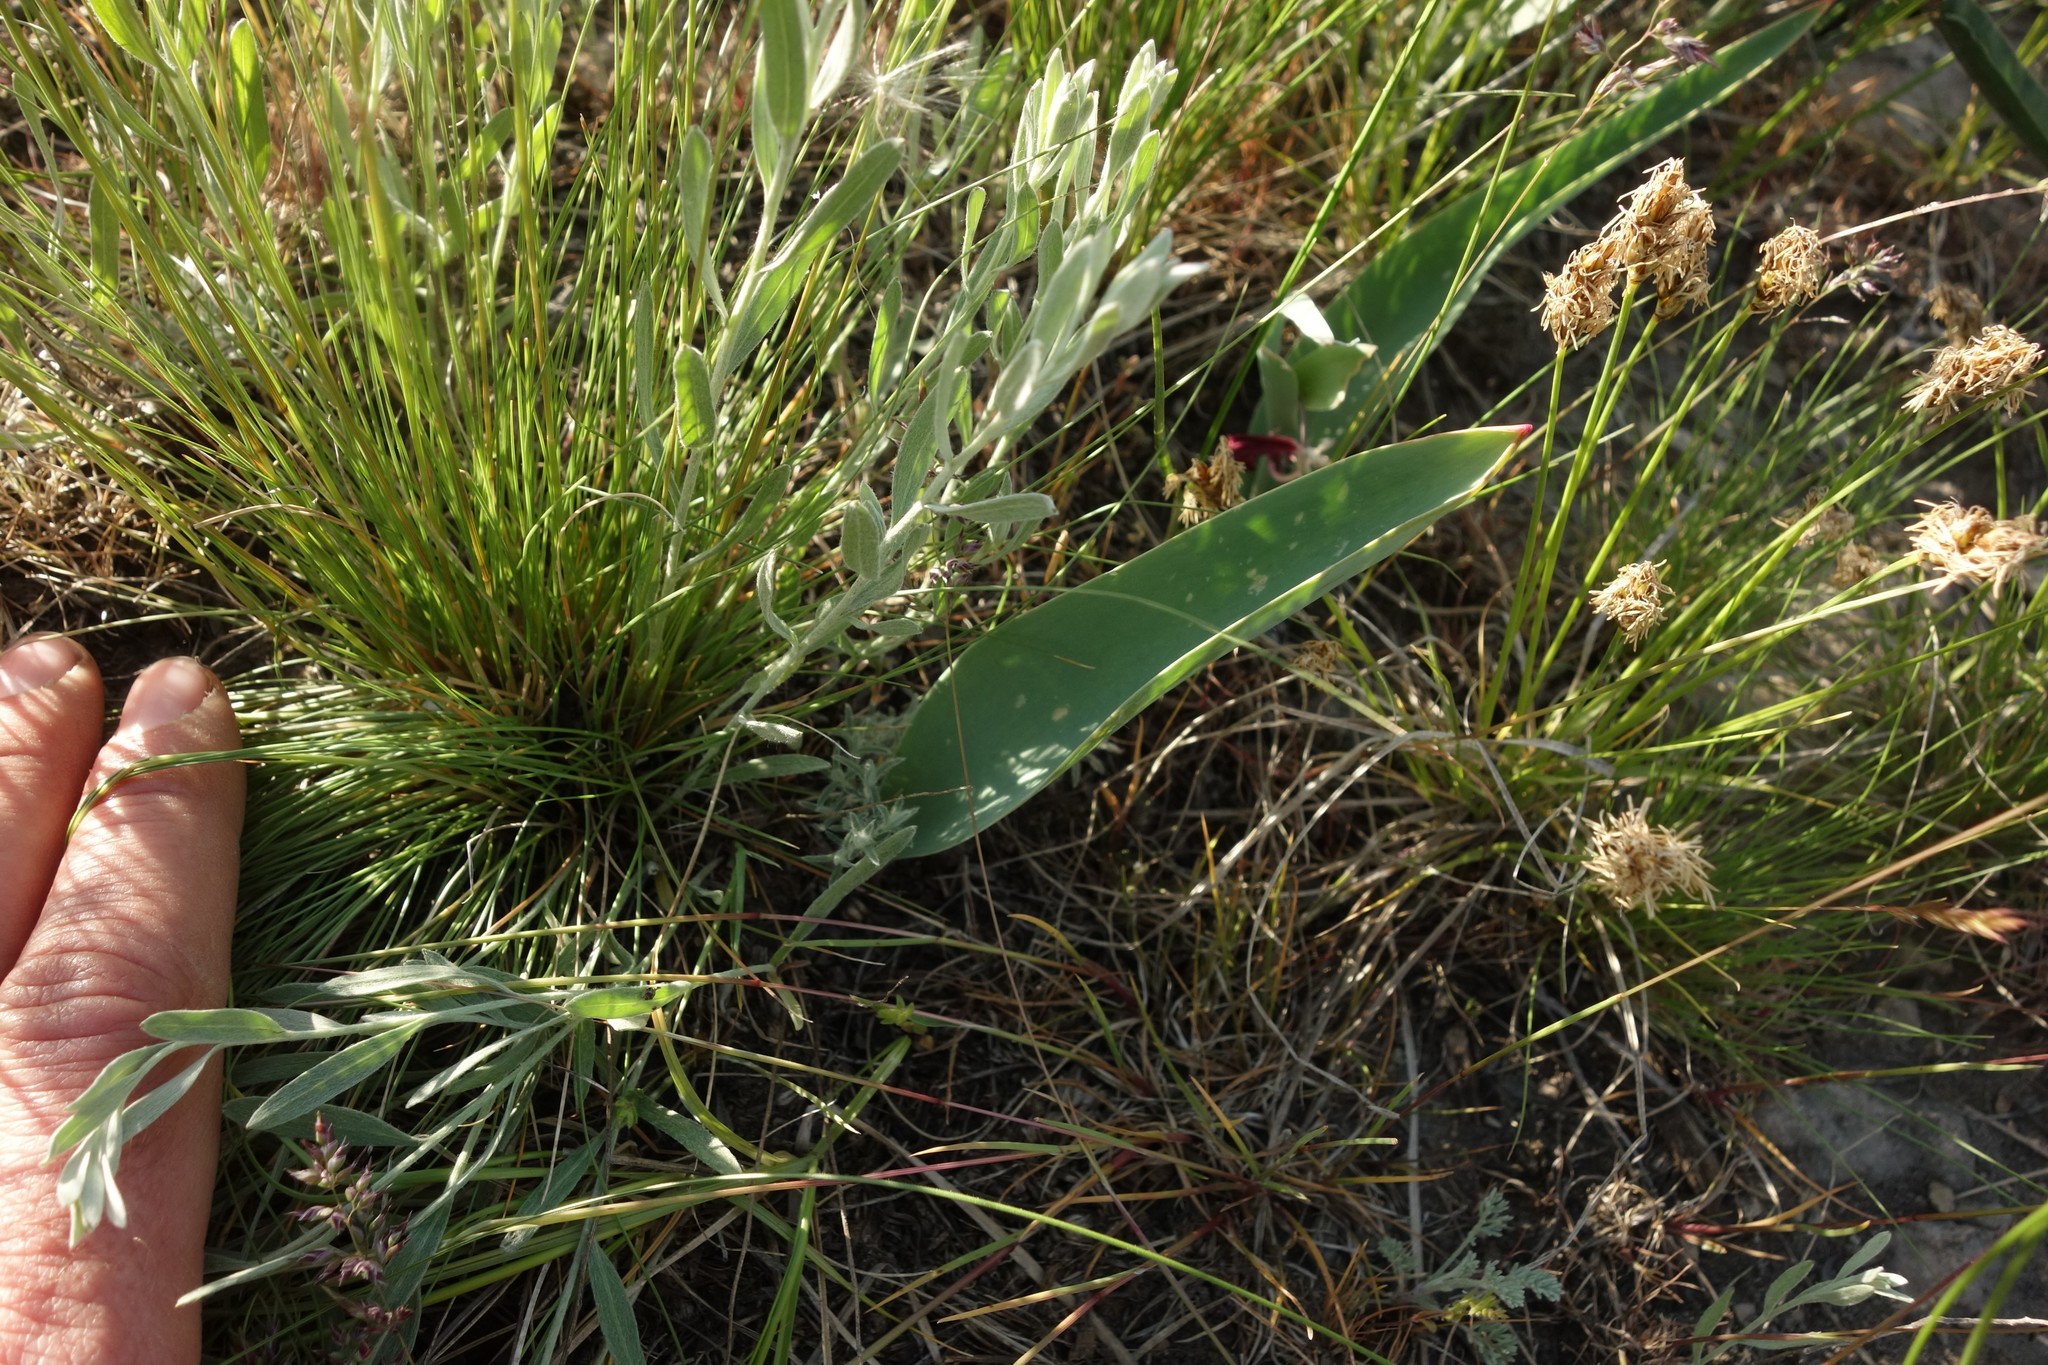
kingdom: Plantae
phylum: Tracheophyta
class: Liliopsida
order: Liliales
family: Liliaceae
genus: Tulipa
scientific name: Tulipa suaveolens
